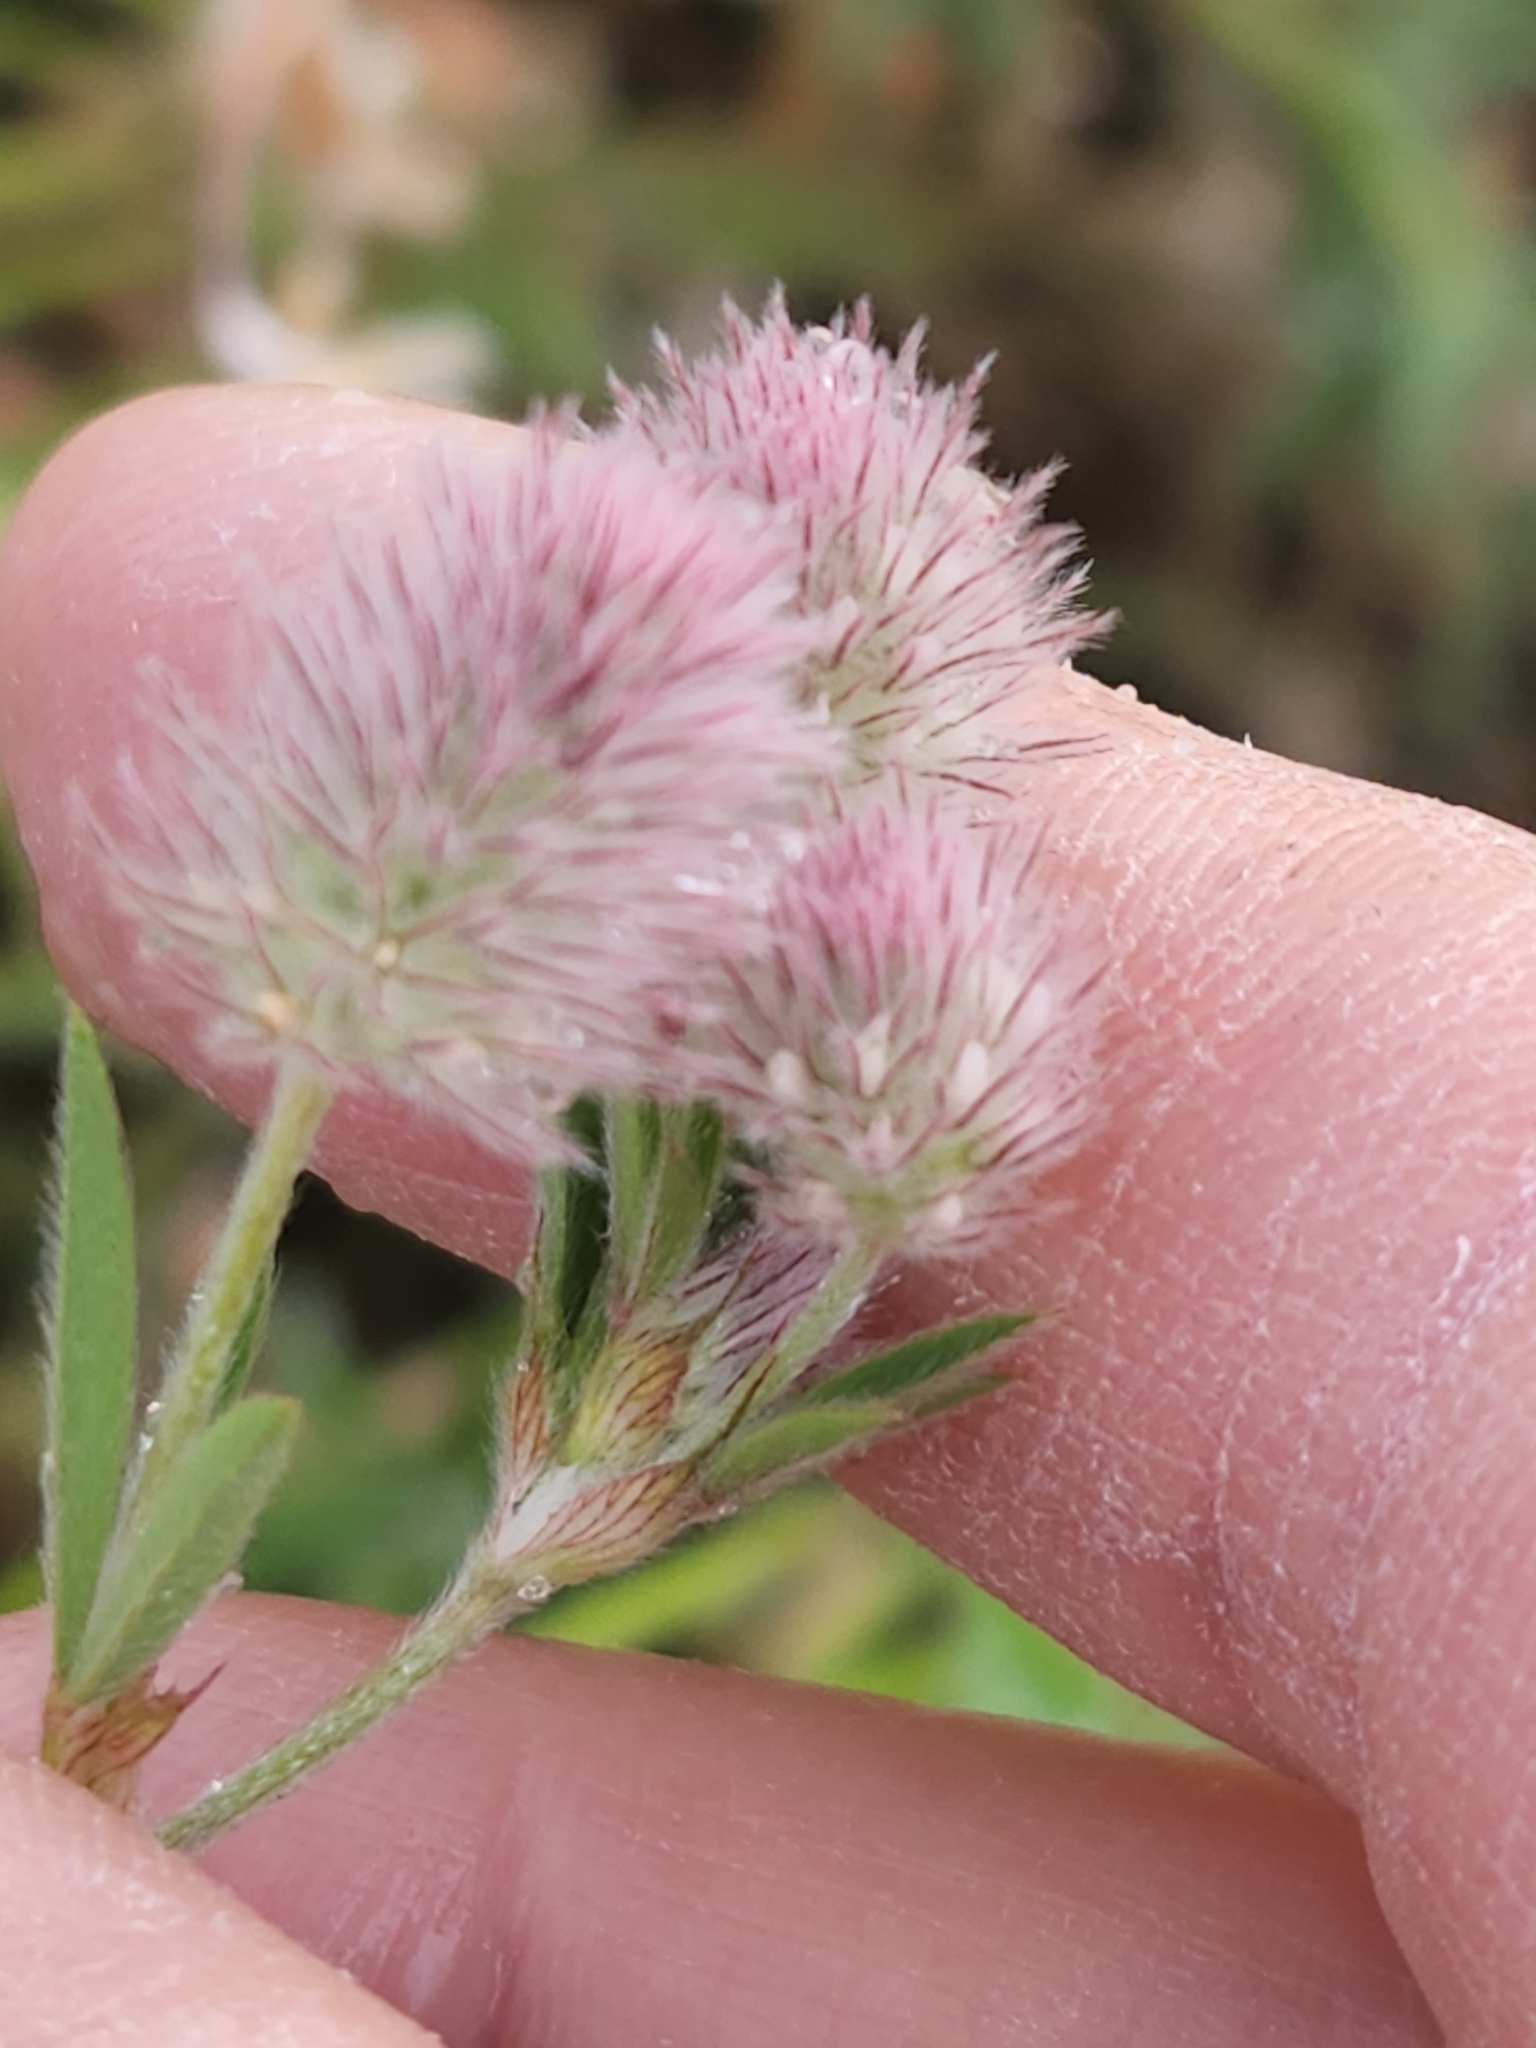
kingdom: Plantae
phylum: Tracheophyta
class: Magnoliopsida
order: Fabales
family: Fabaceae
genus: Trifolium
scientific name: Trifolium arvense
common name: Hare's-foot clover
